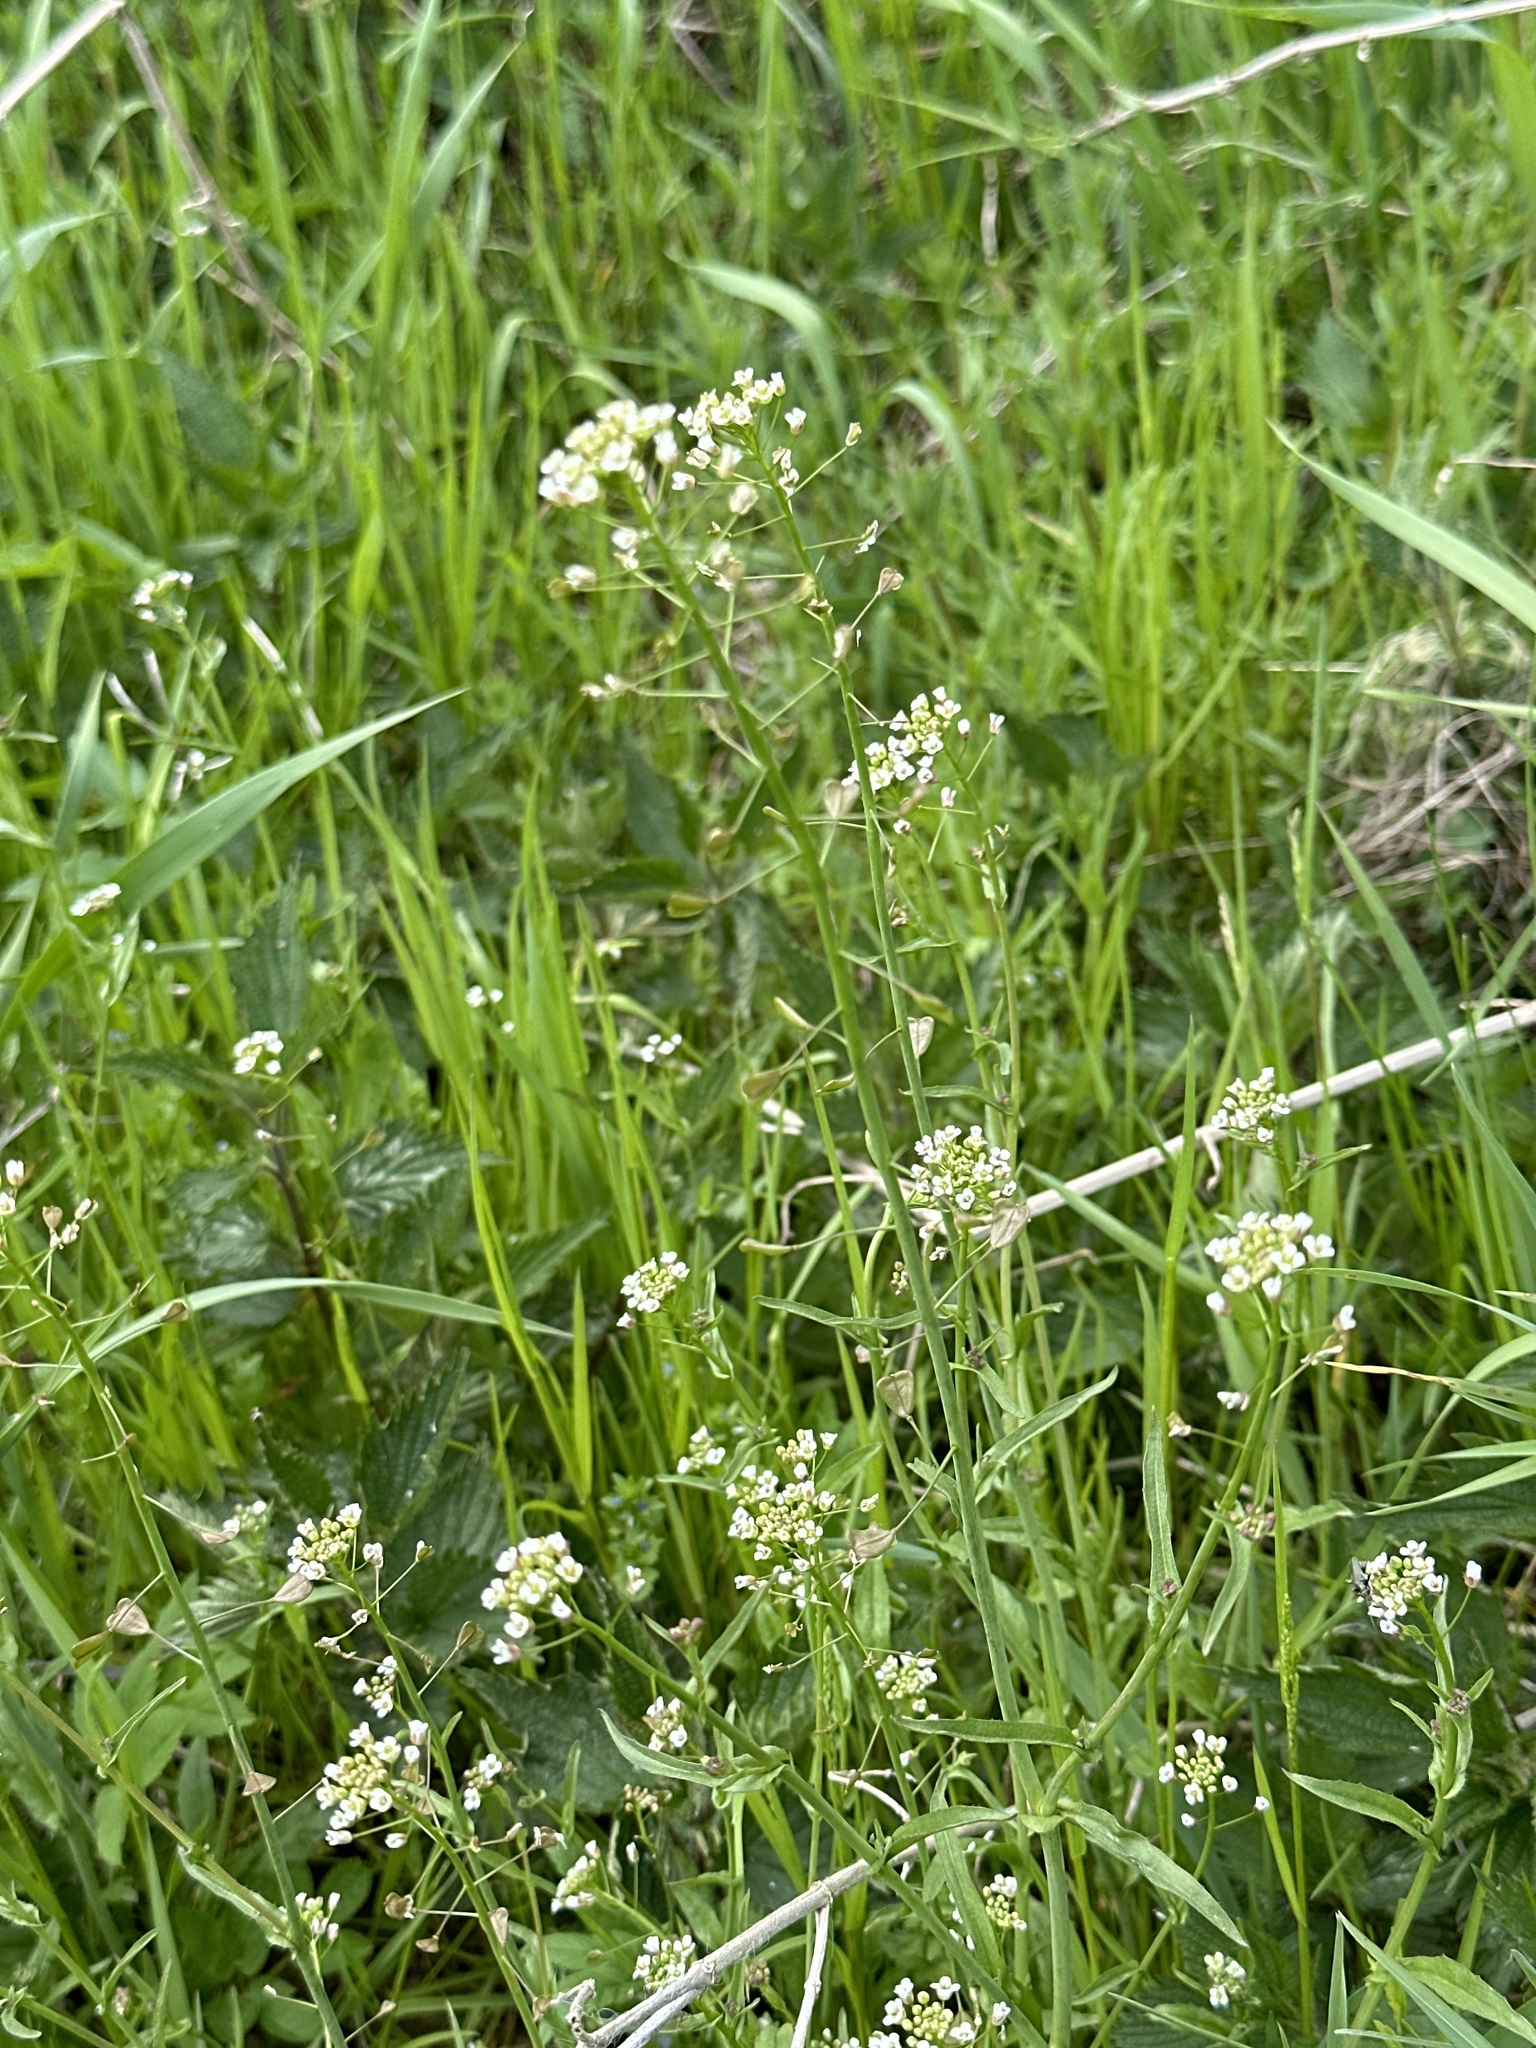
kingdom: Plantae
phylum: Tracheophyta
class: Magnoliopsida
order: Brassicales
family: Brassicaceae
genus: Capsella
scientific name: Capsella bursa-pastoris
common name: Shepherd's purse
